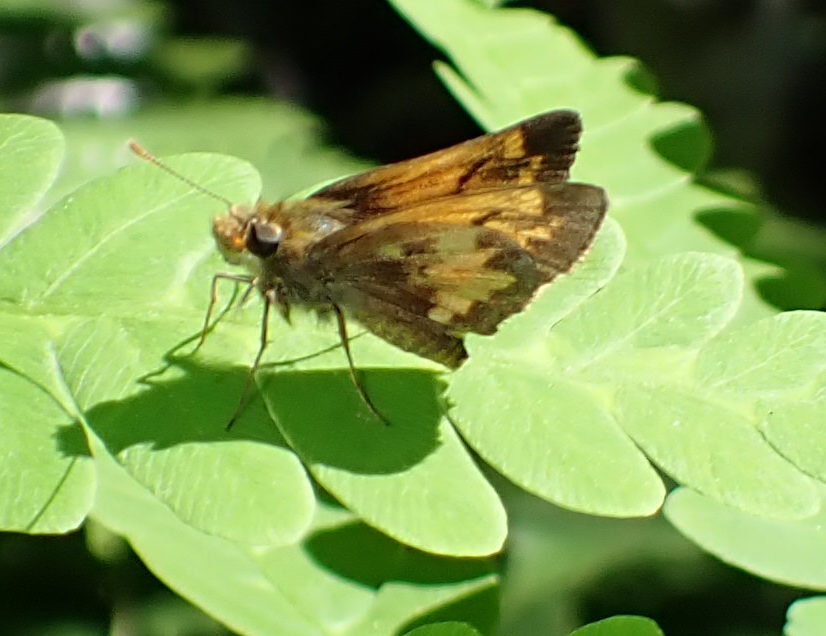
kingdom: Animalia
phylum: Arthropoda
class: Insecta
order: Lepidoptera
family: Hesperiidae
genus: Lon
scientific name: Lon hobomok
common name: Hobomok skipper
